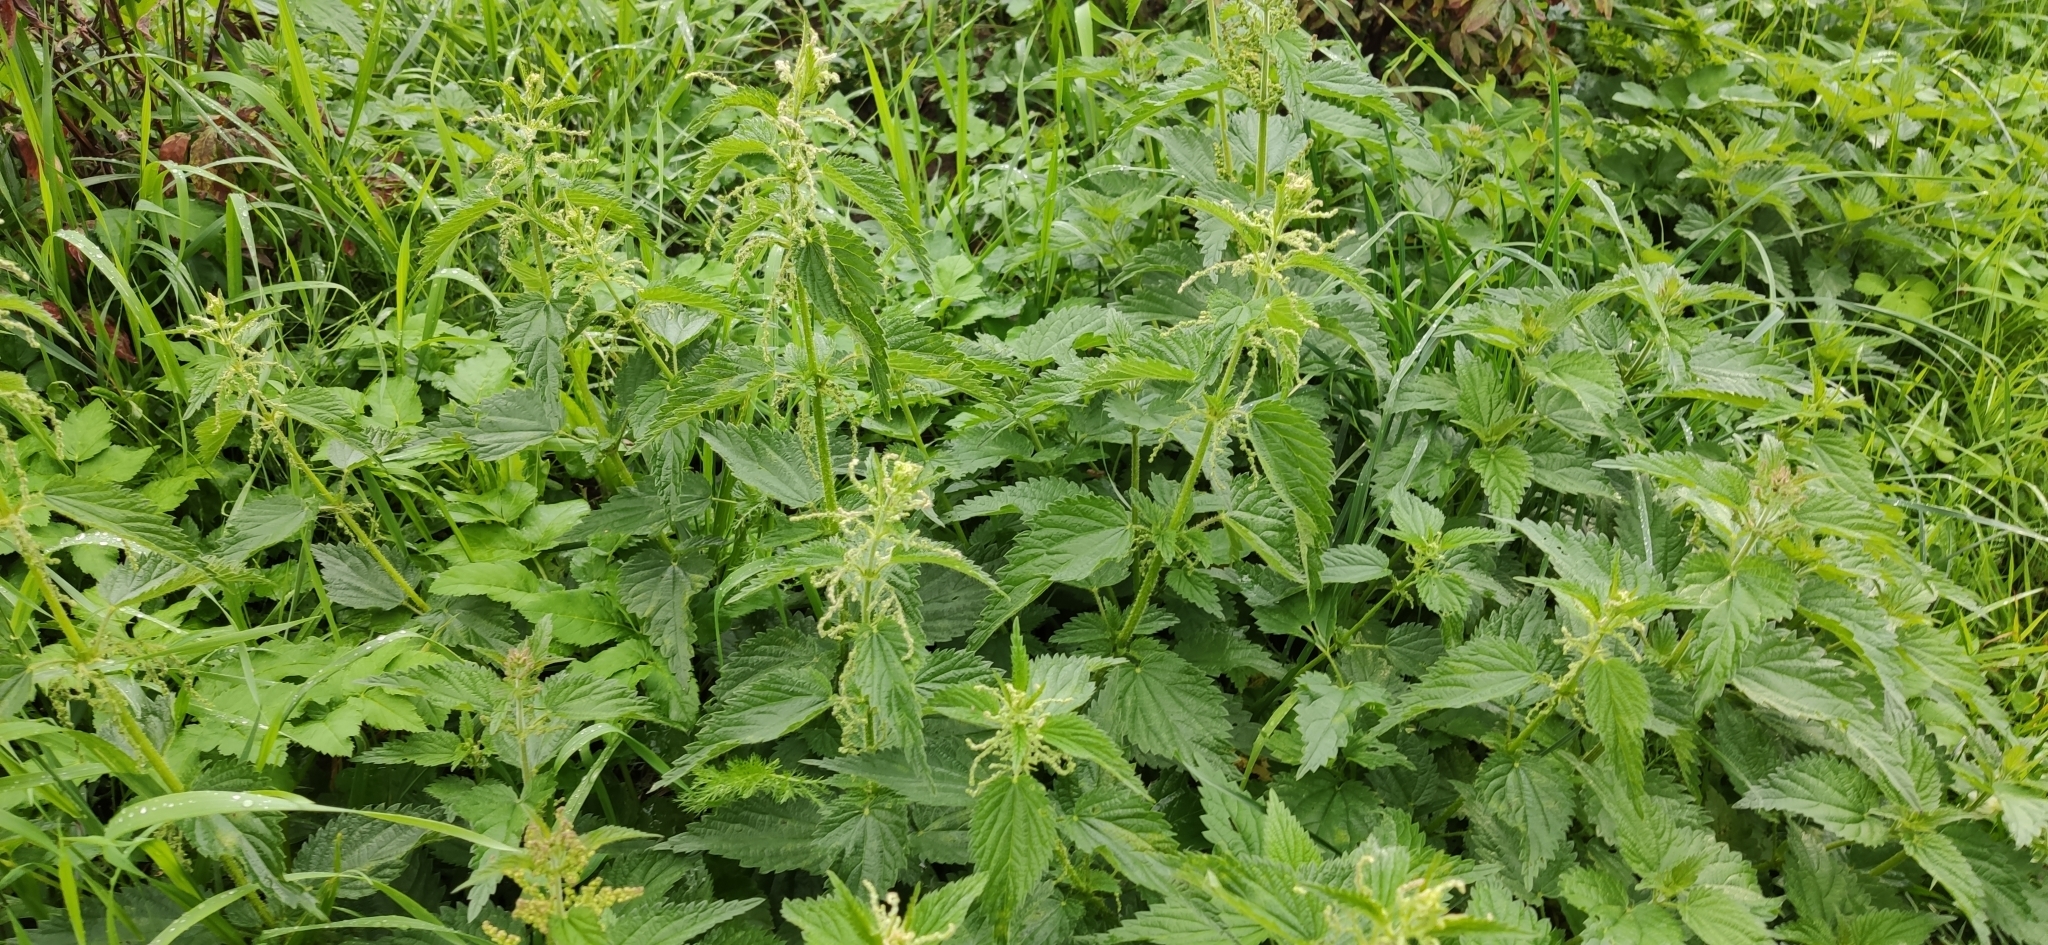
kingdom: Plantae
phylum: Tracheophyta
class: Magnoliopsida
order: Rosales
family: Urticaceae
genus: Urtica
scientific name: Urtica dioica
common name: Common nettle
